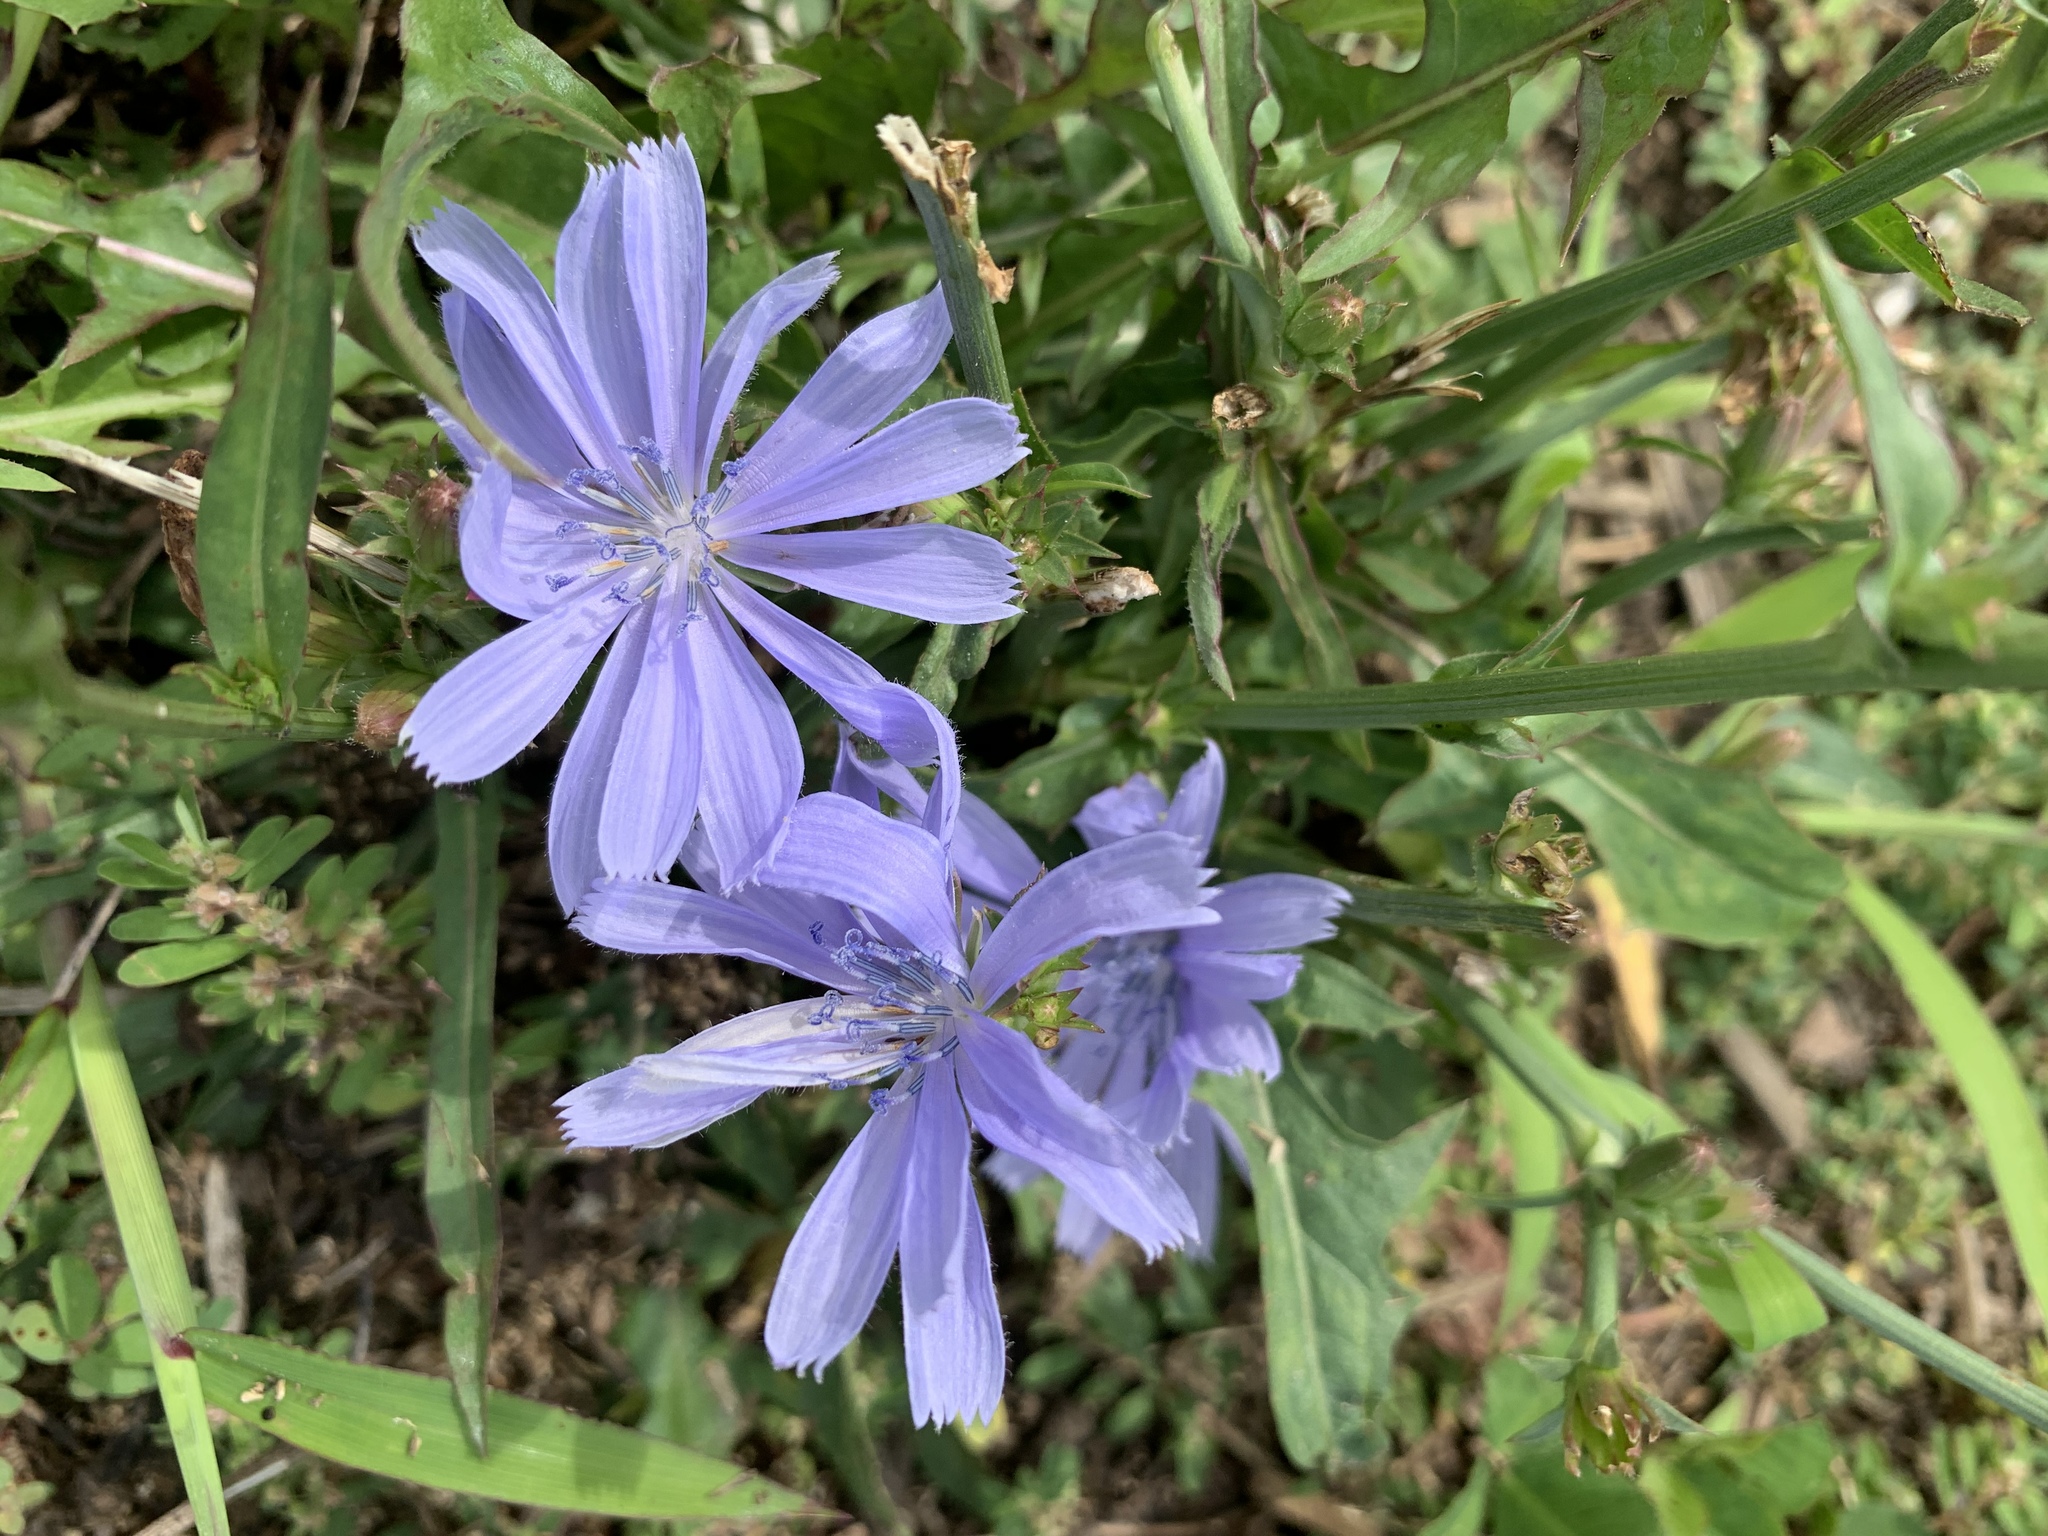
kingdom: Plantae
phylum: Tracheophyta
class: Magnoliopsida
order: Asterales
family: Asteraceae
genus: Cichorium
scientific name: Cichorium intybus
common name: Chicory
